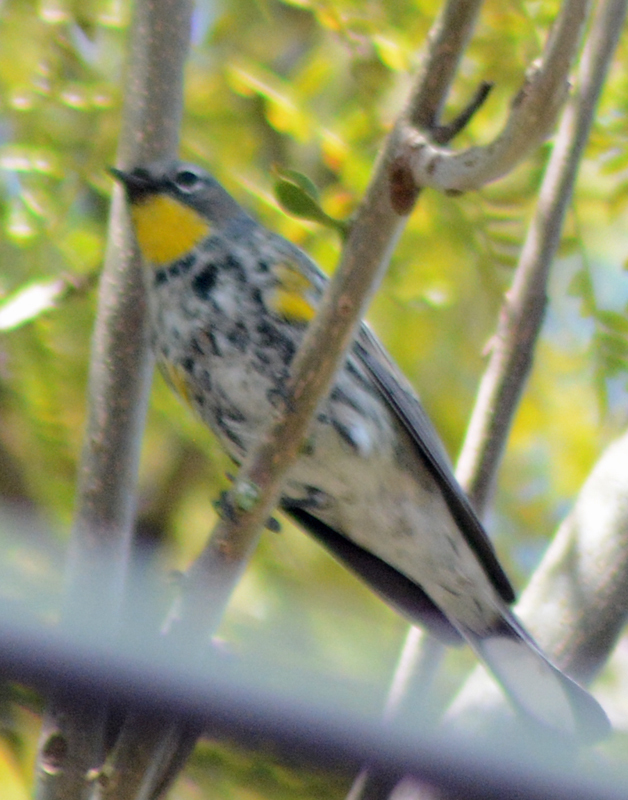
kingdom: Animalia
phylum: Chordata
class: Aves
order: Passeriformes
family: Parulidae
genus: Setophaga
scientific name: Setophaga auduboni
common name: Audubon's warbler
